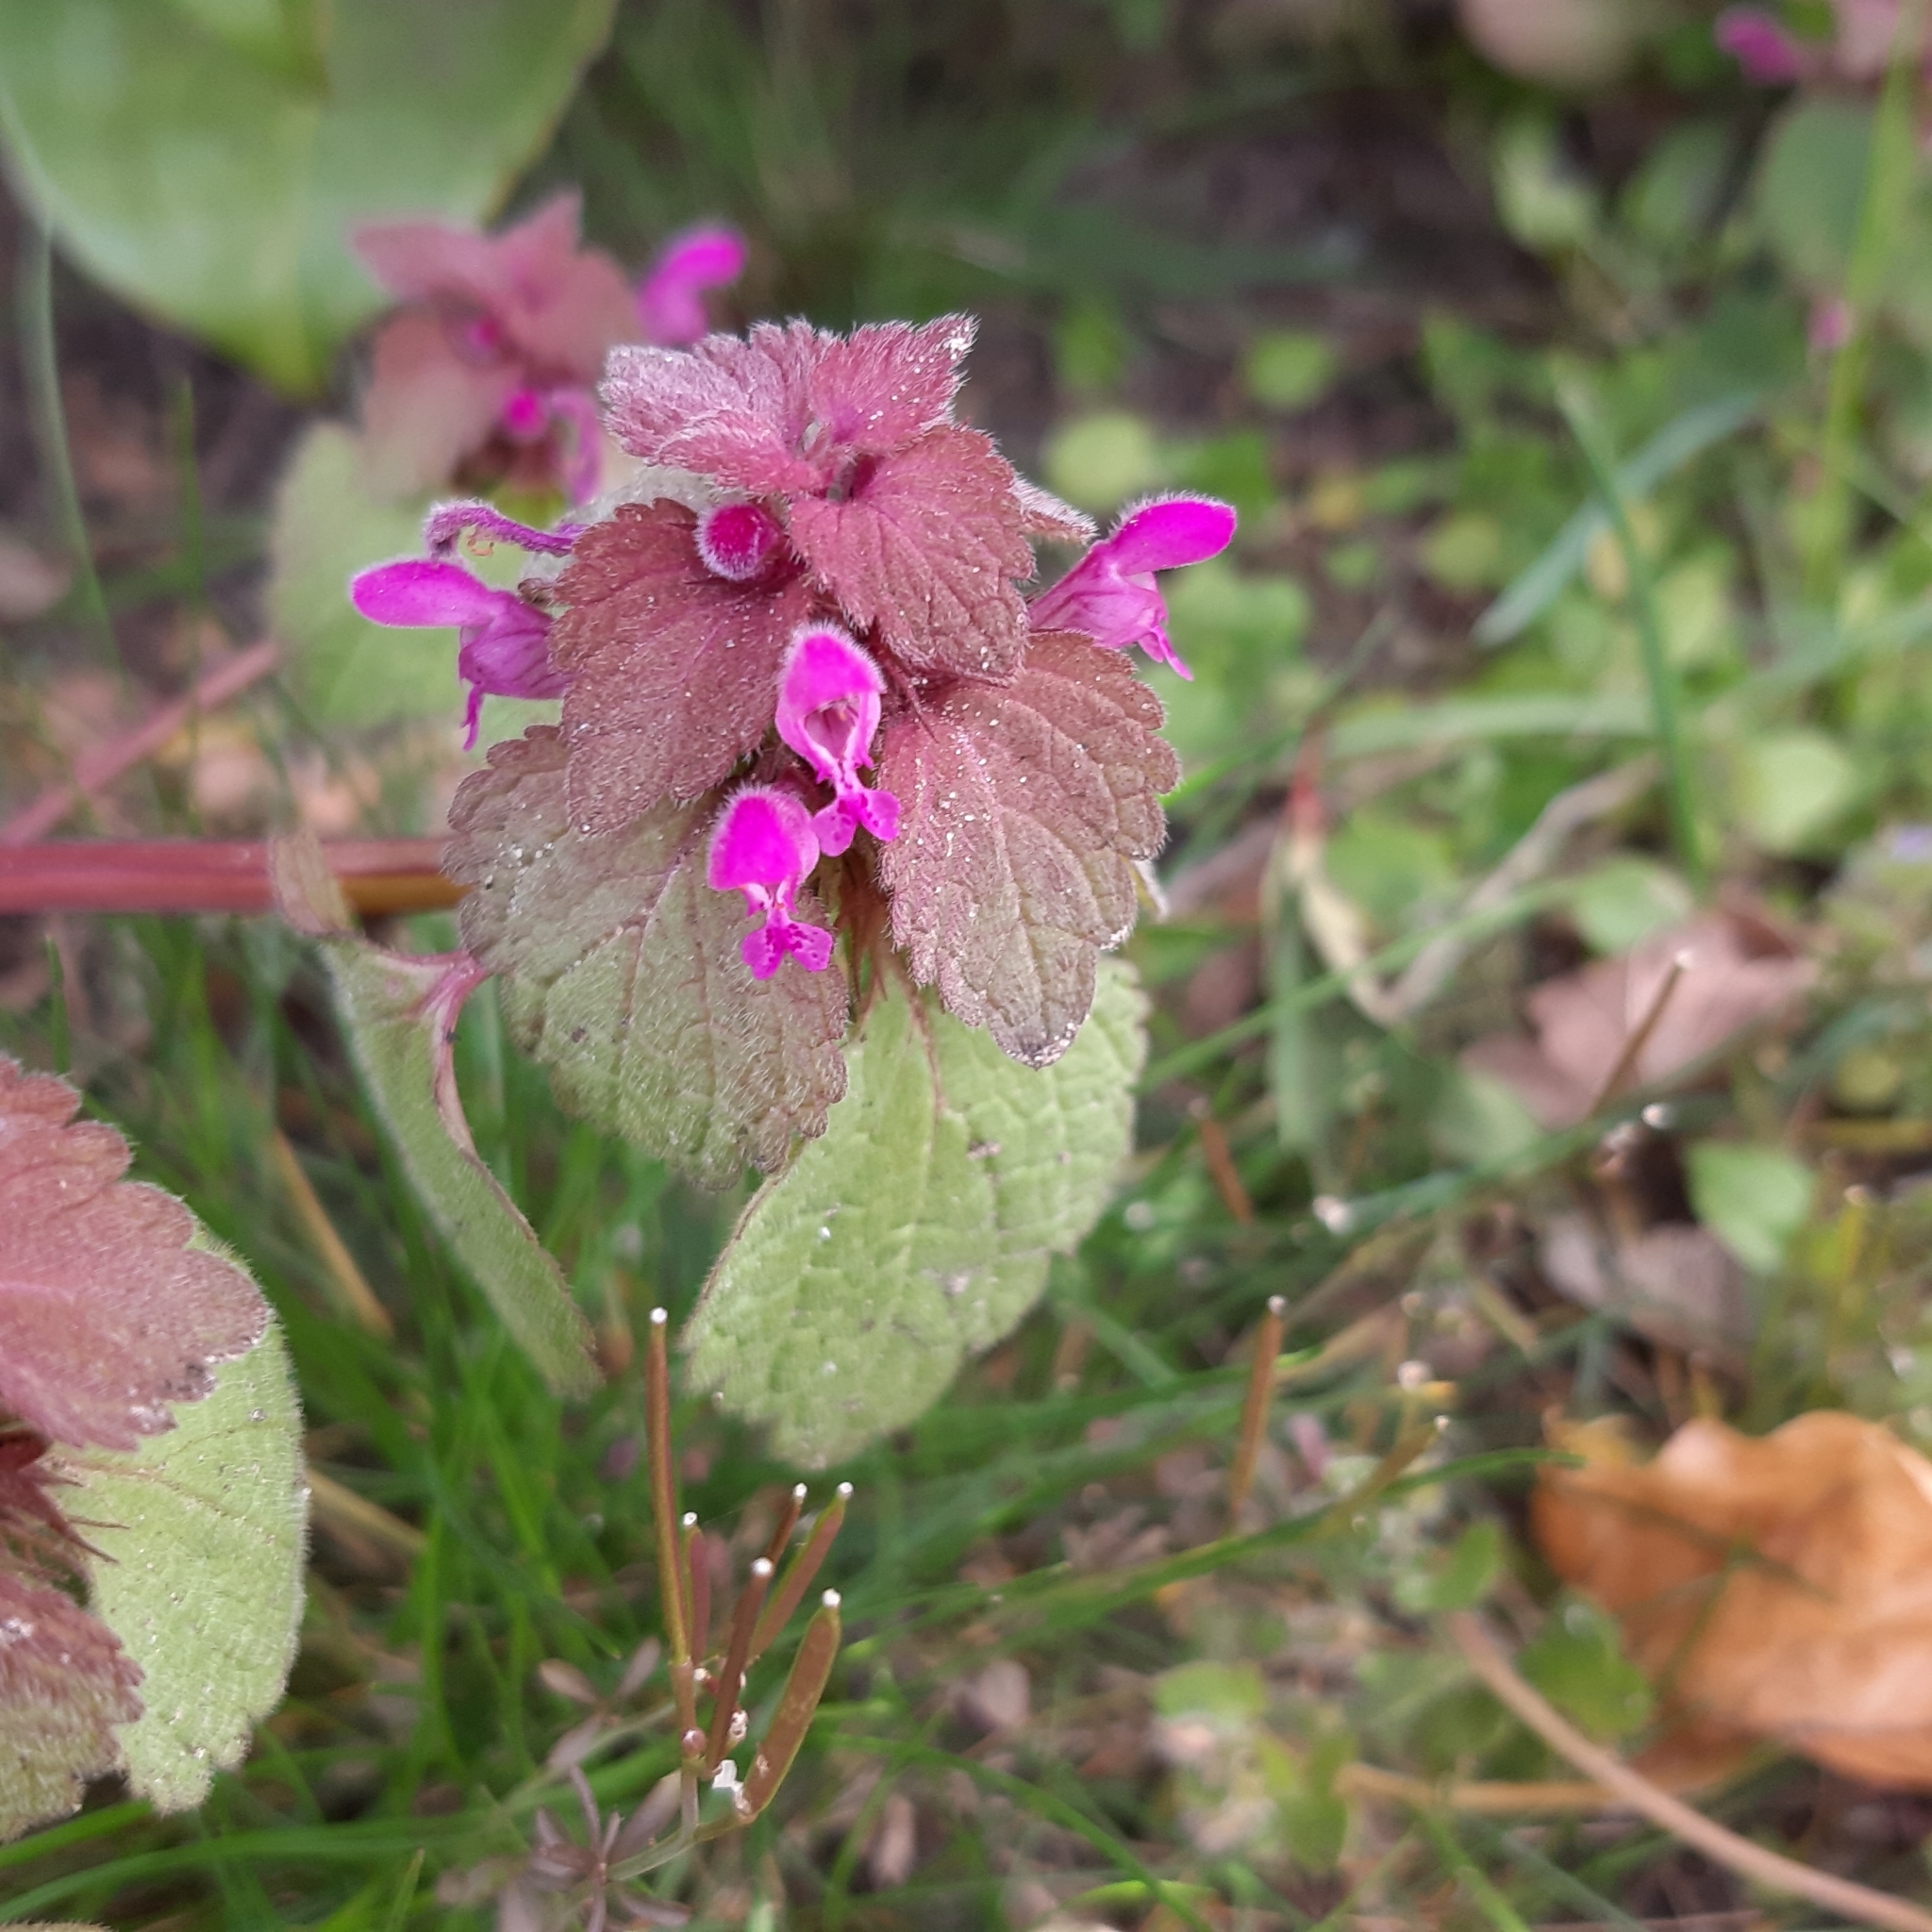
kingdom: Plantae
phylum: Tracheophyta
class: Magnoliopsida
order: Lamiales
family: Lamiaceae
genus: Lamium
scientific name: Lamium purpureum
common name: Red dead-nettle
